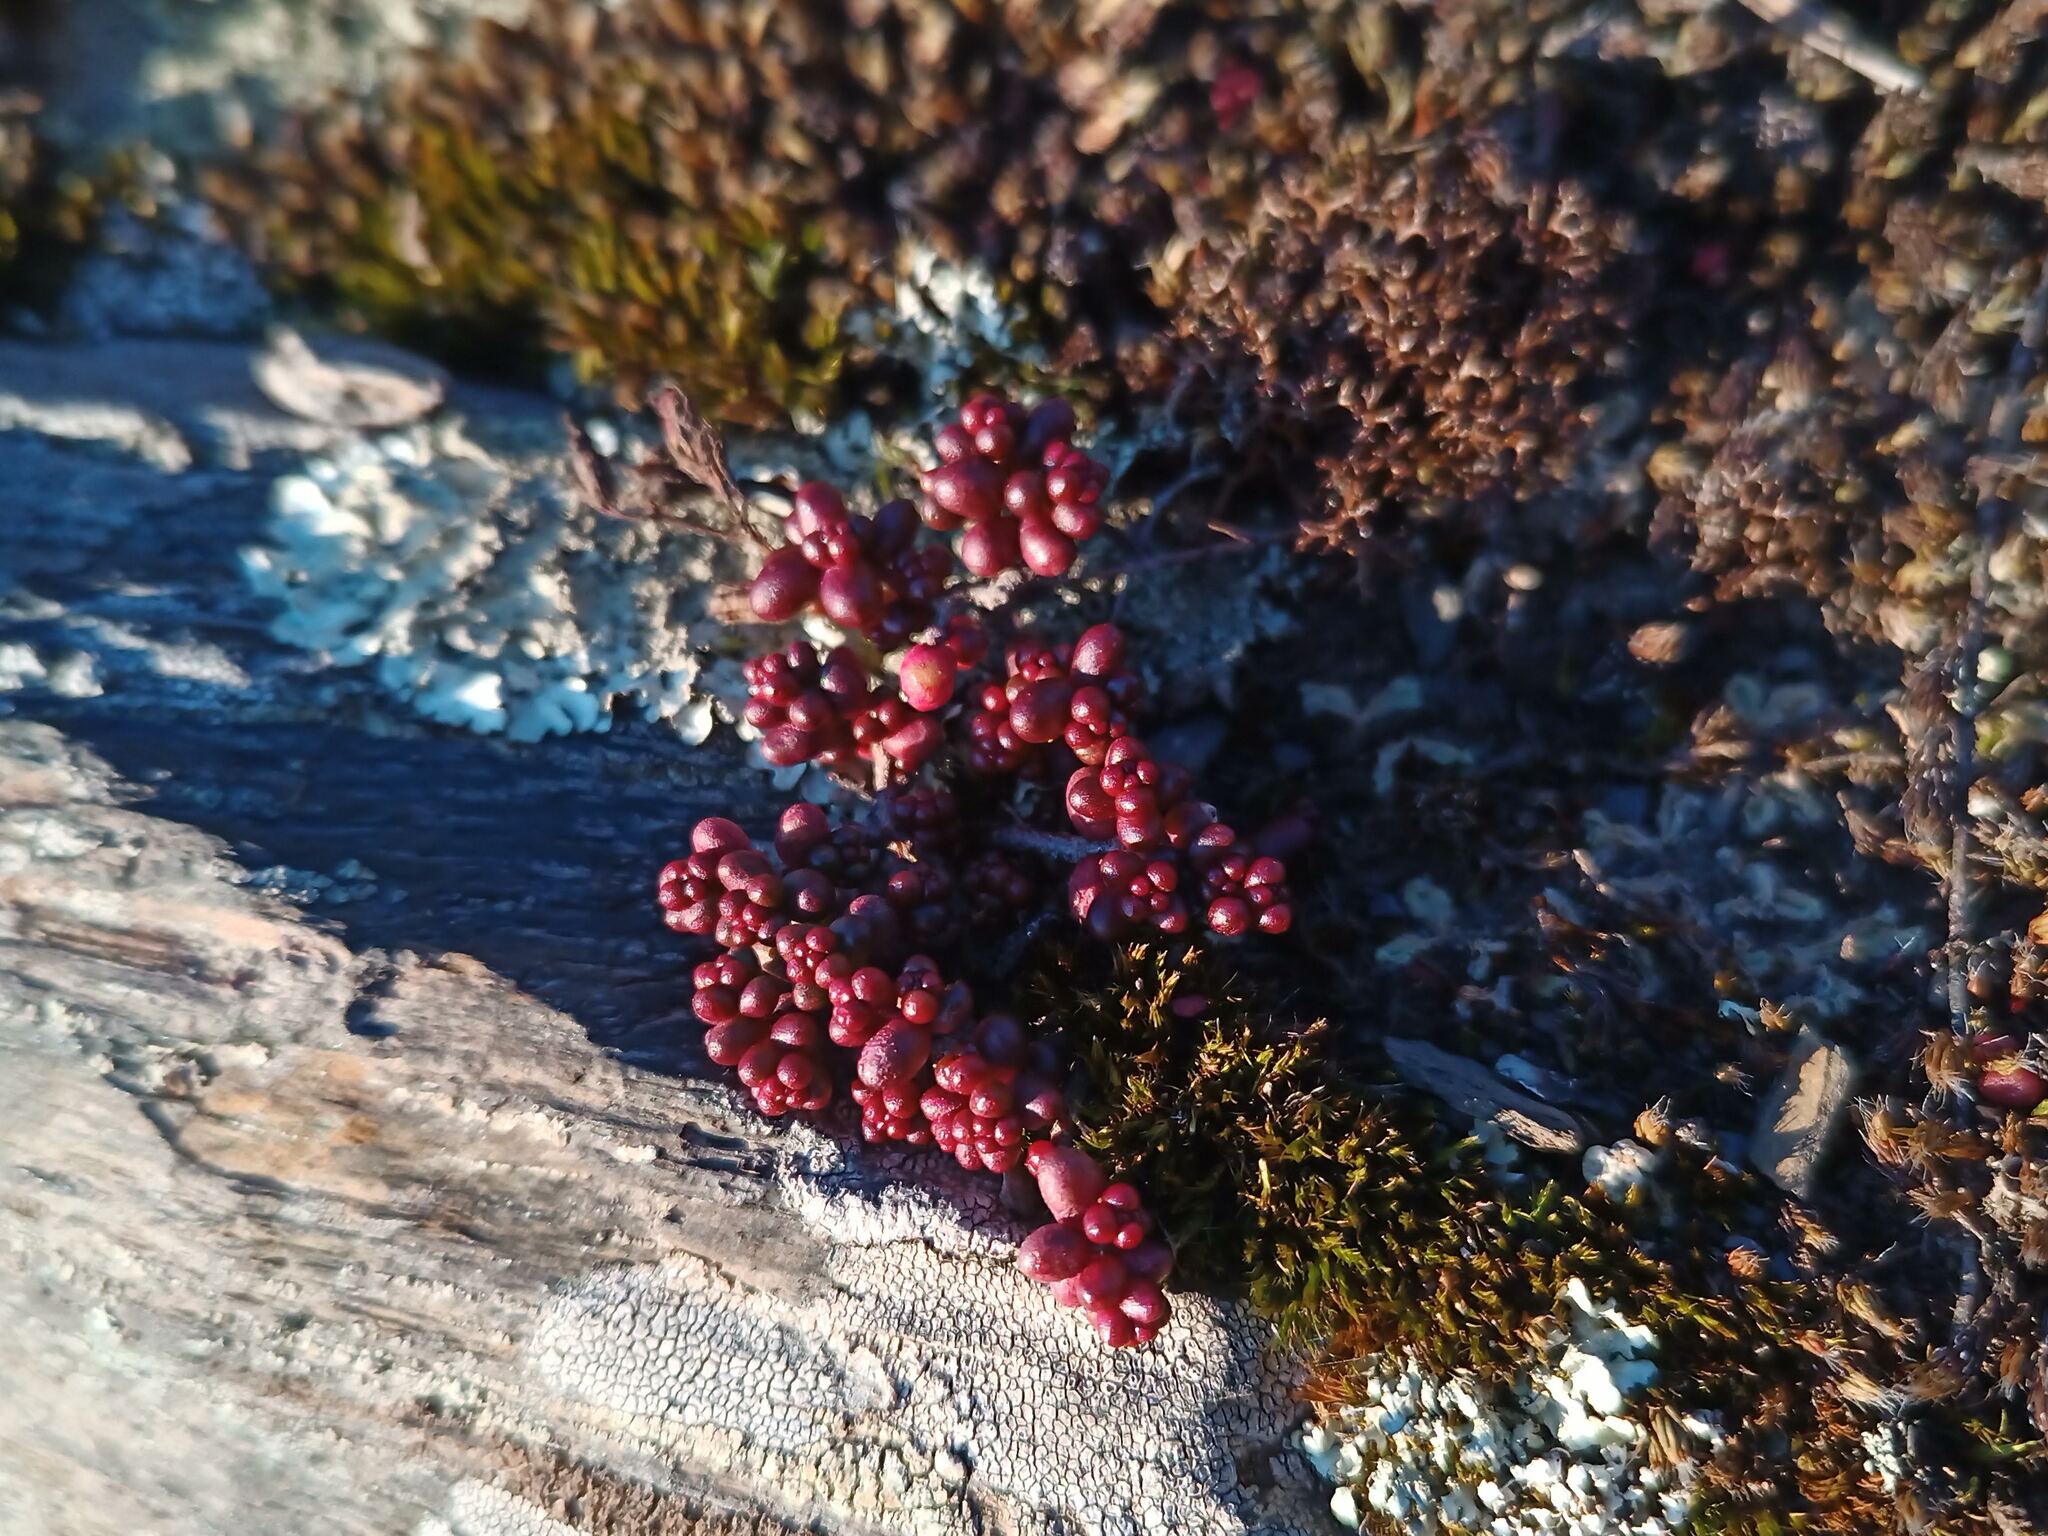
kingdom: Plantae
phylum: Tracheophyta
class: Magnoliopsida
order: Saxifragales
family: Crassulaceae
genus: Sedum
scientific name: Sedum brevifolium
